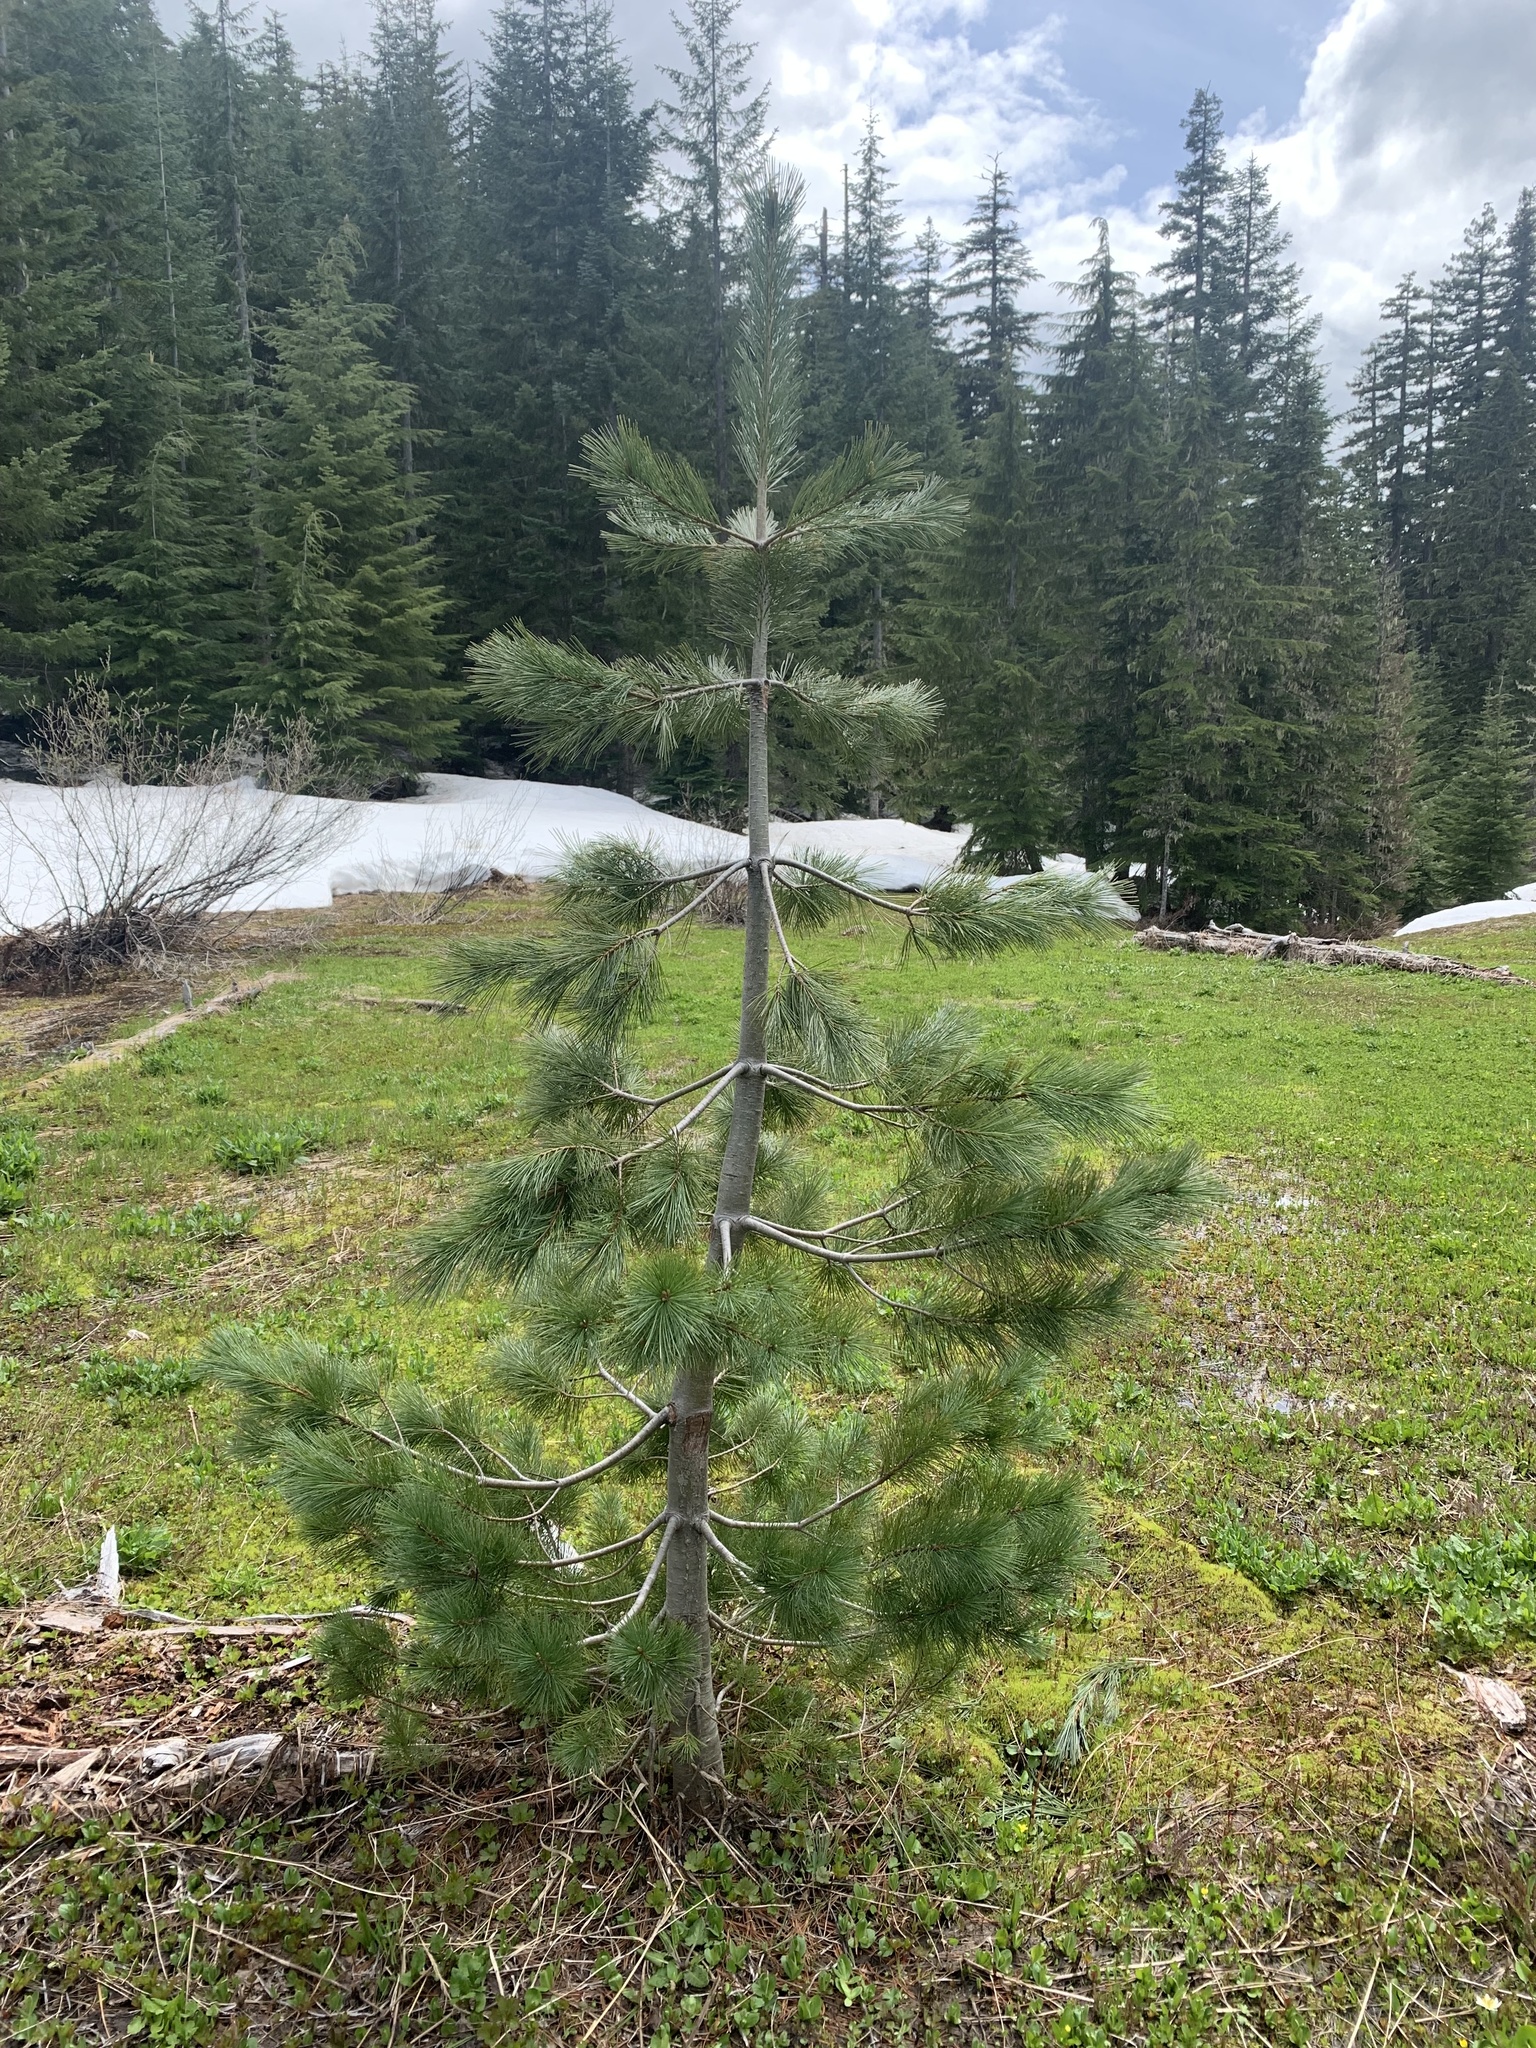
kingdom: Plantae
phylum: Tracheophyta
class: Pinopsida
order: Pinales
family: Pinaceae
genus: Pinus
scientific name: Pinus monticola
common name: Western white pine
